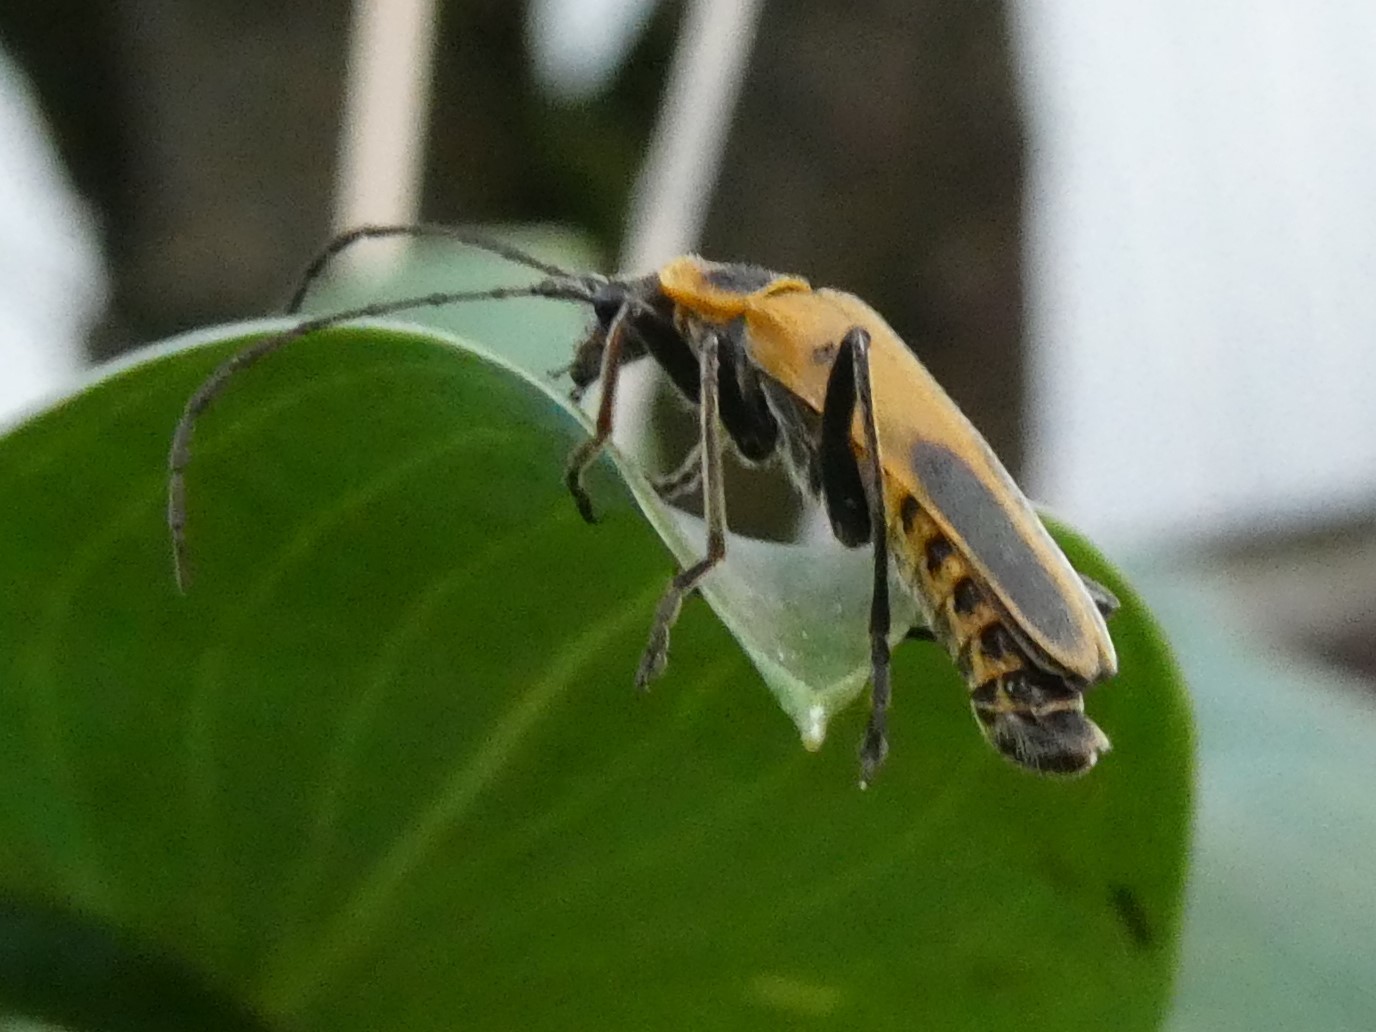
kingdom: Animalia
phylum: Arthropoda
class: Insecta
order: Coleoptera
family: Cantharidae
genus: Chauliognathus
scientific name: Chauliognathus pensylvanicus
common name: Goldenrod soldier beetle
